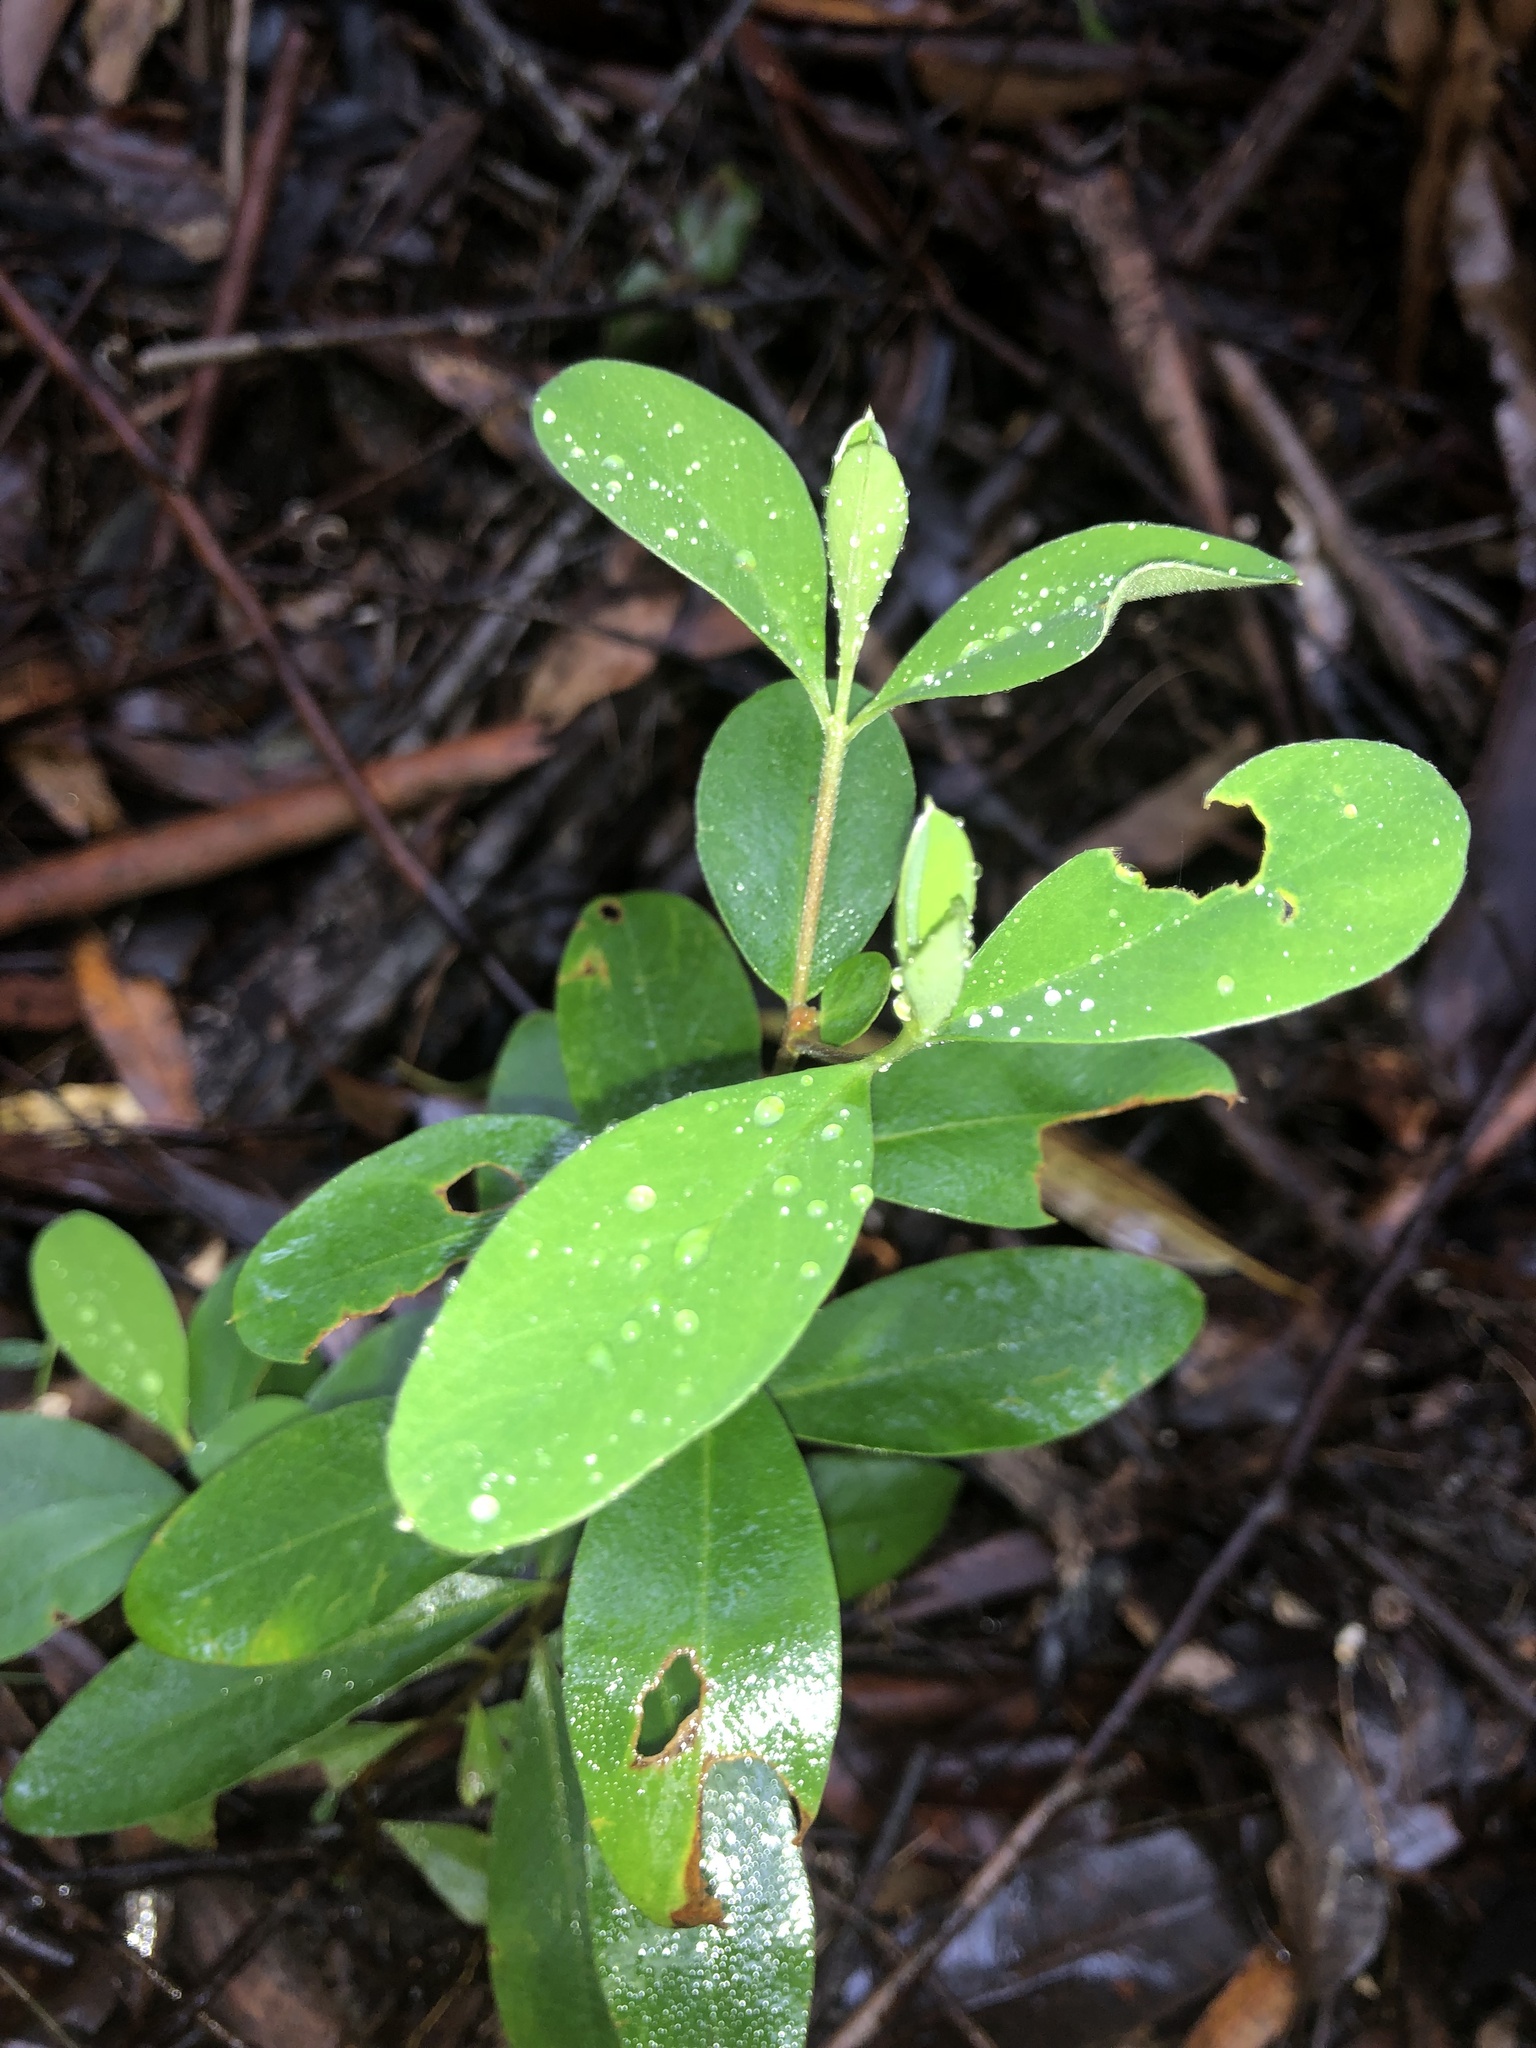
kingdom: Plantae
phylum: Tracheophyta
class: Magnoliopsida
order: Malvales
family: Thymelaeaceae
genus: Pimelea
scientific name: Pimelea gigandra
